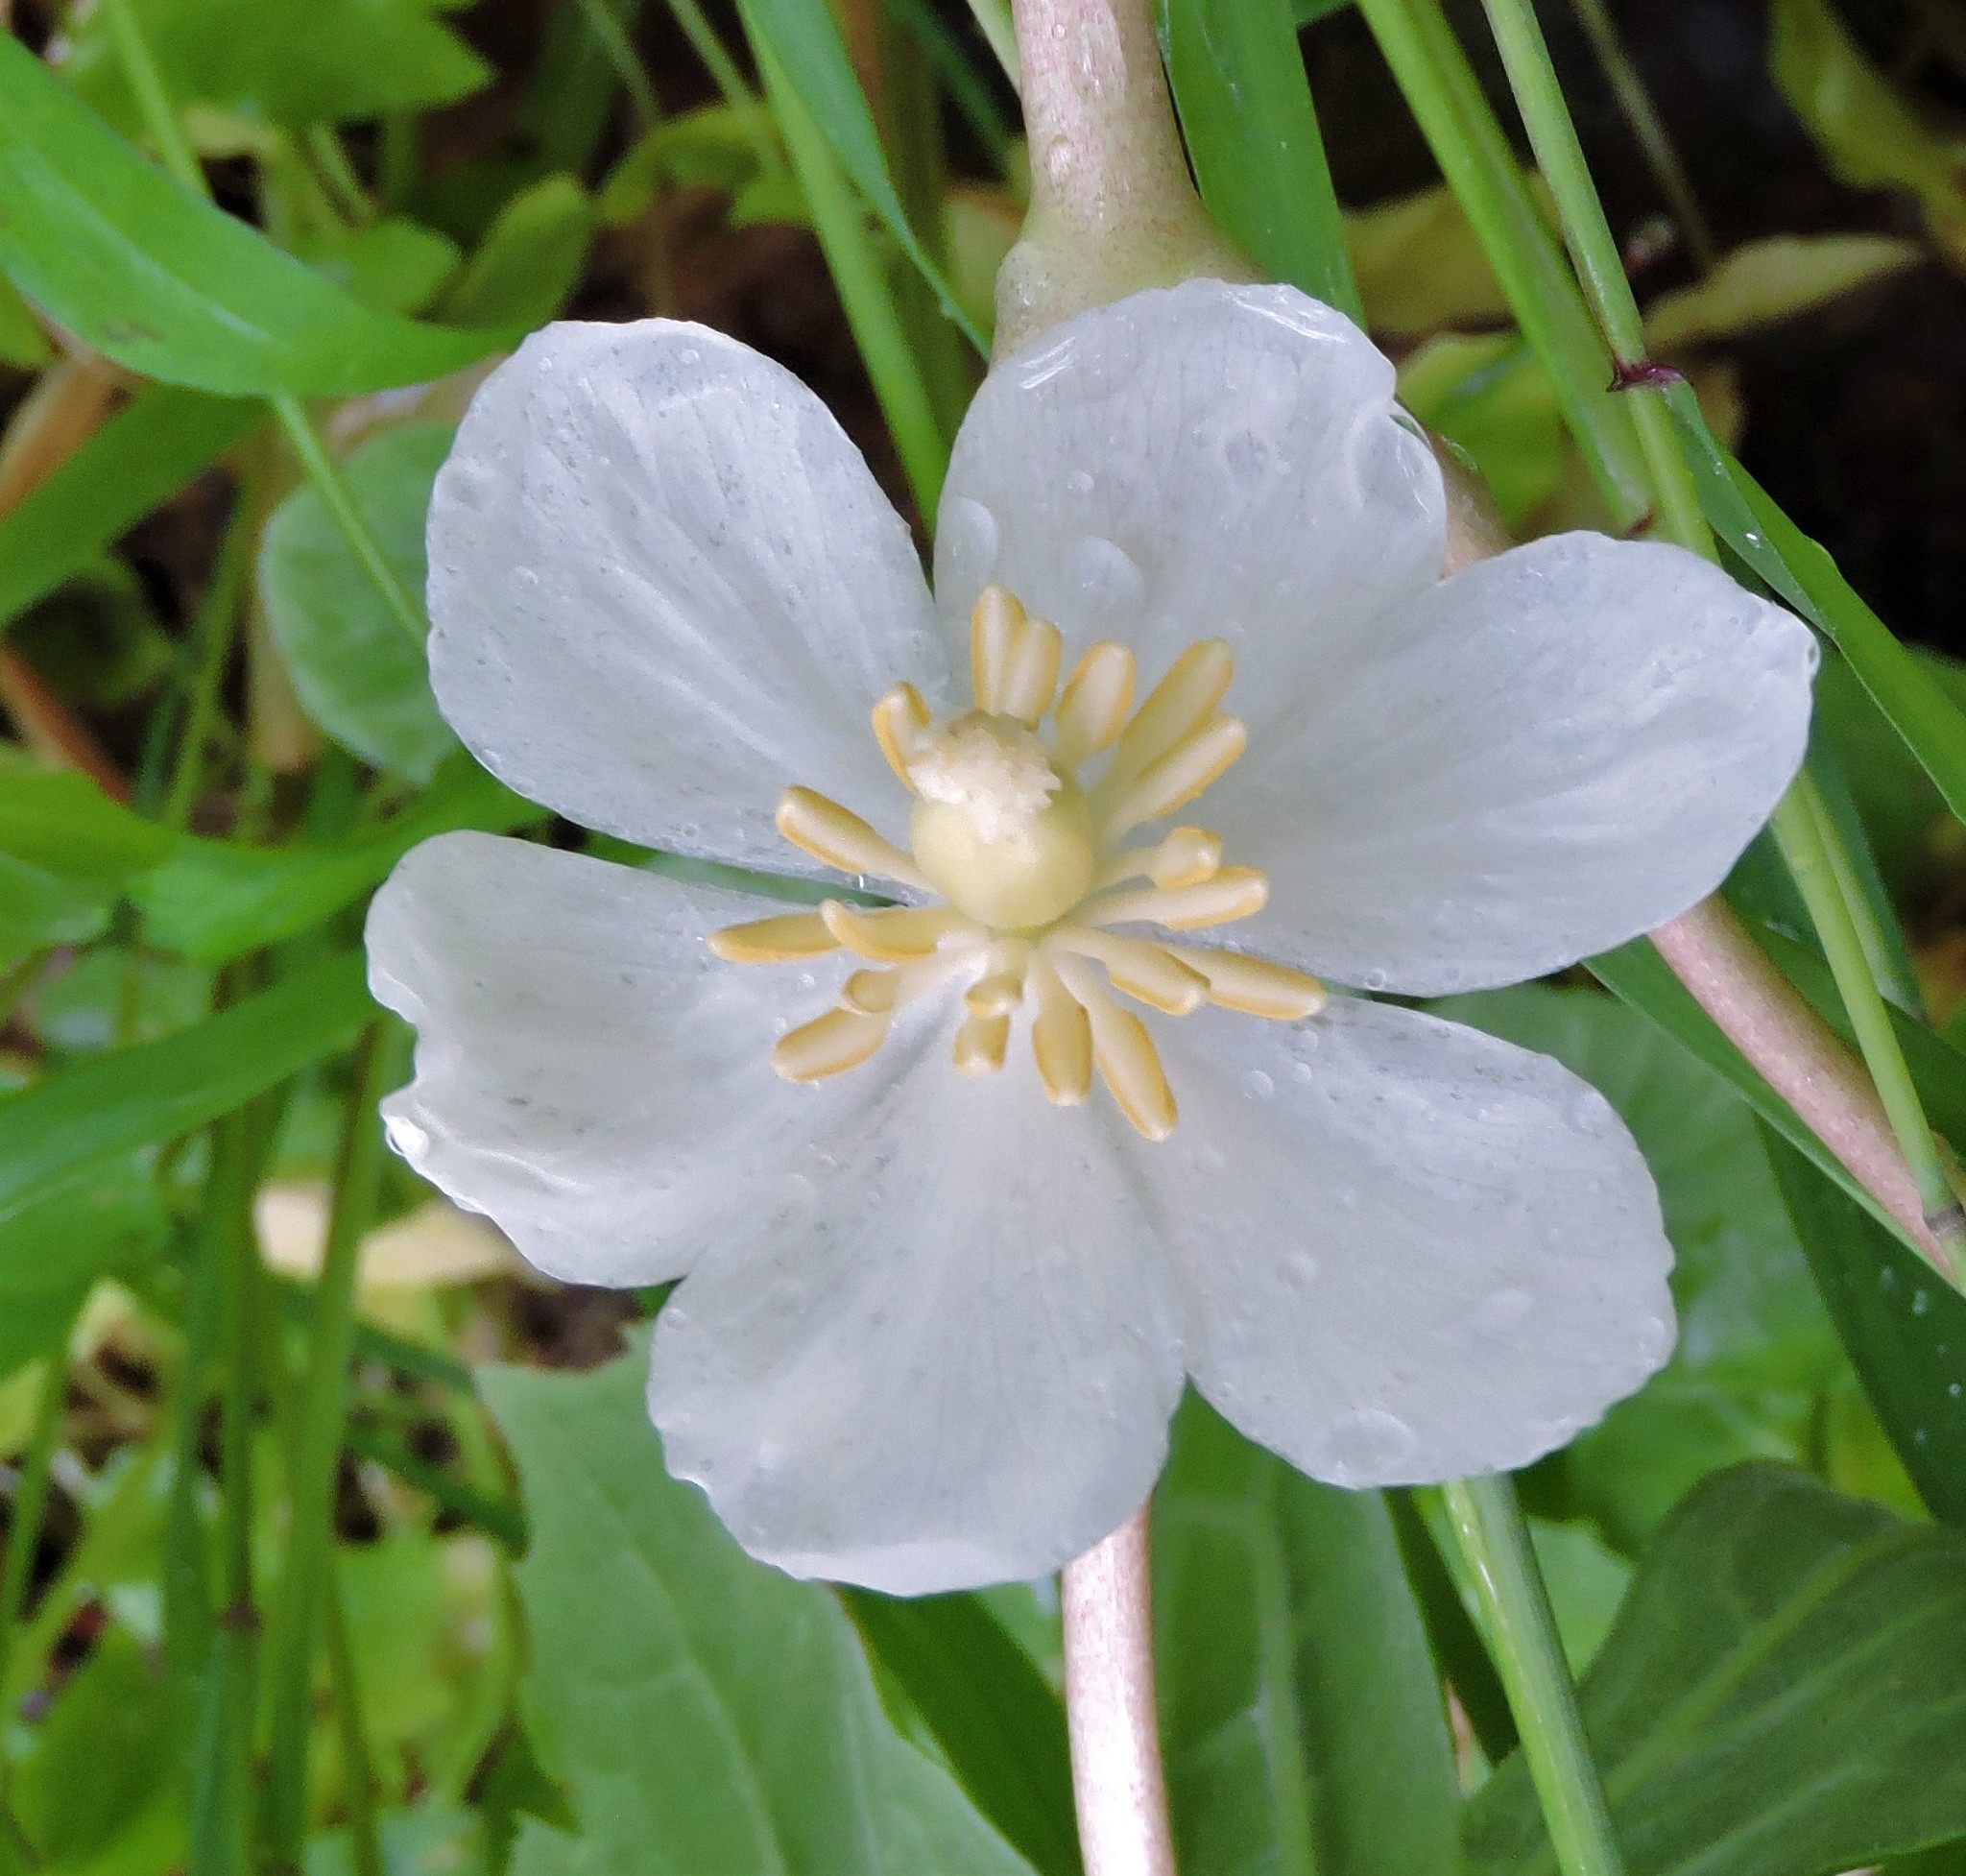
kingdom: Plantae
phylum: Tracheophyta
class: Magnoliopsida
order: Ranunculales
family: Berberidaceae
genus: Podophyllum
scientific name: Podophyllum peltatum
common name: Wild mandrake
